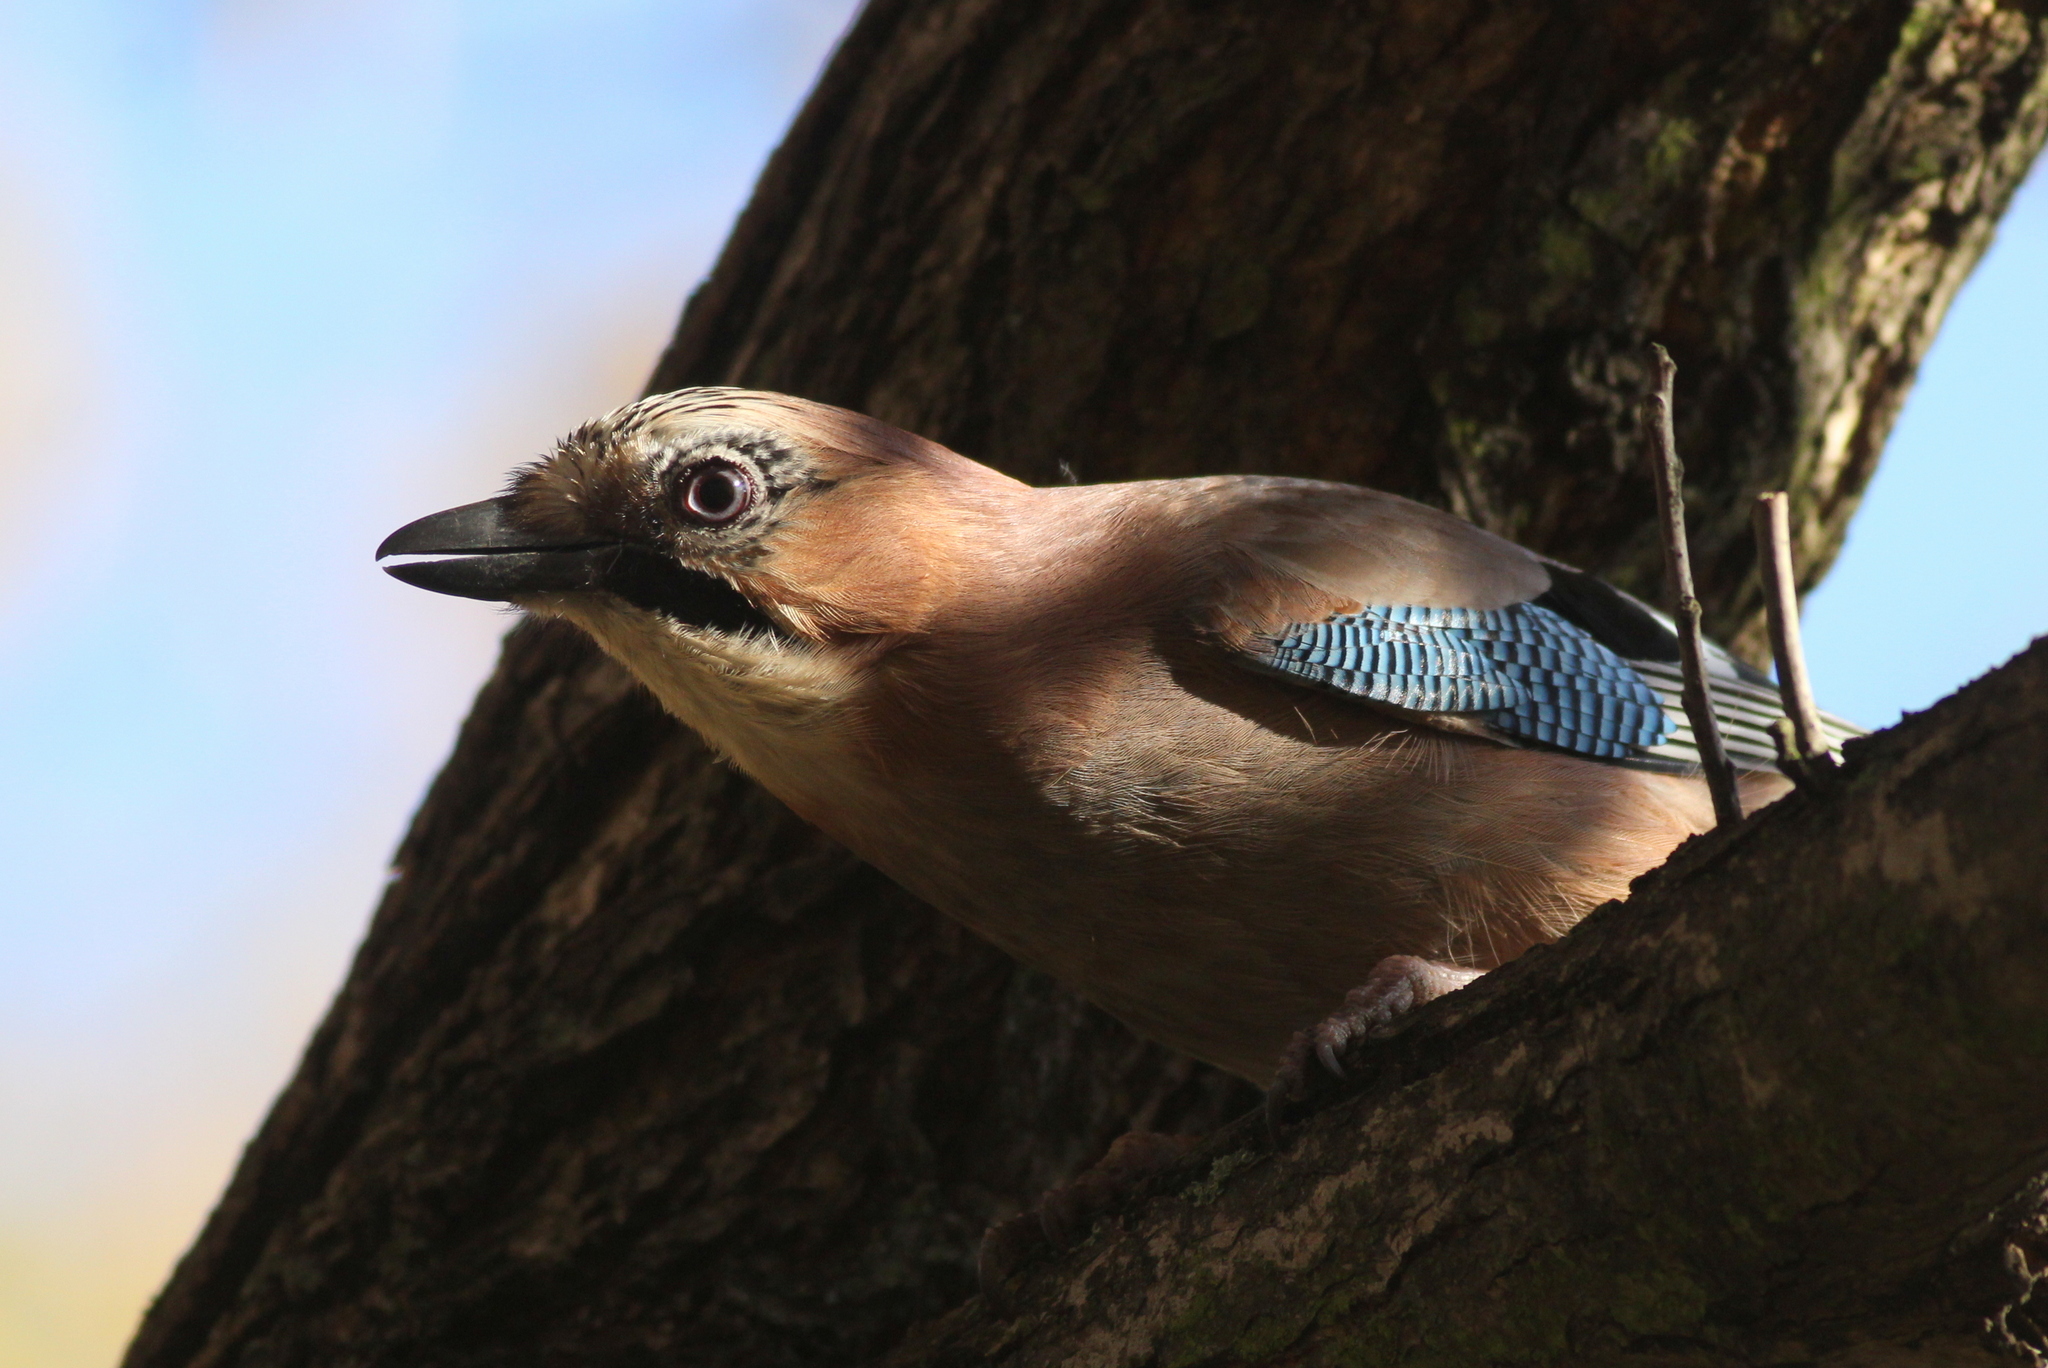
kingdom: Animalia
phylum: Chordata
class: Aves
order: Passeriformes
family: Corvidae
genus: Garrulus
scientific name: Garrulus glandarius
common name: Eurasian jay
